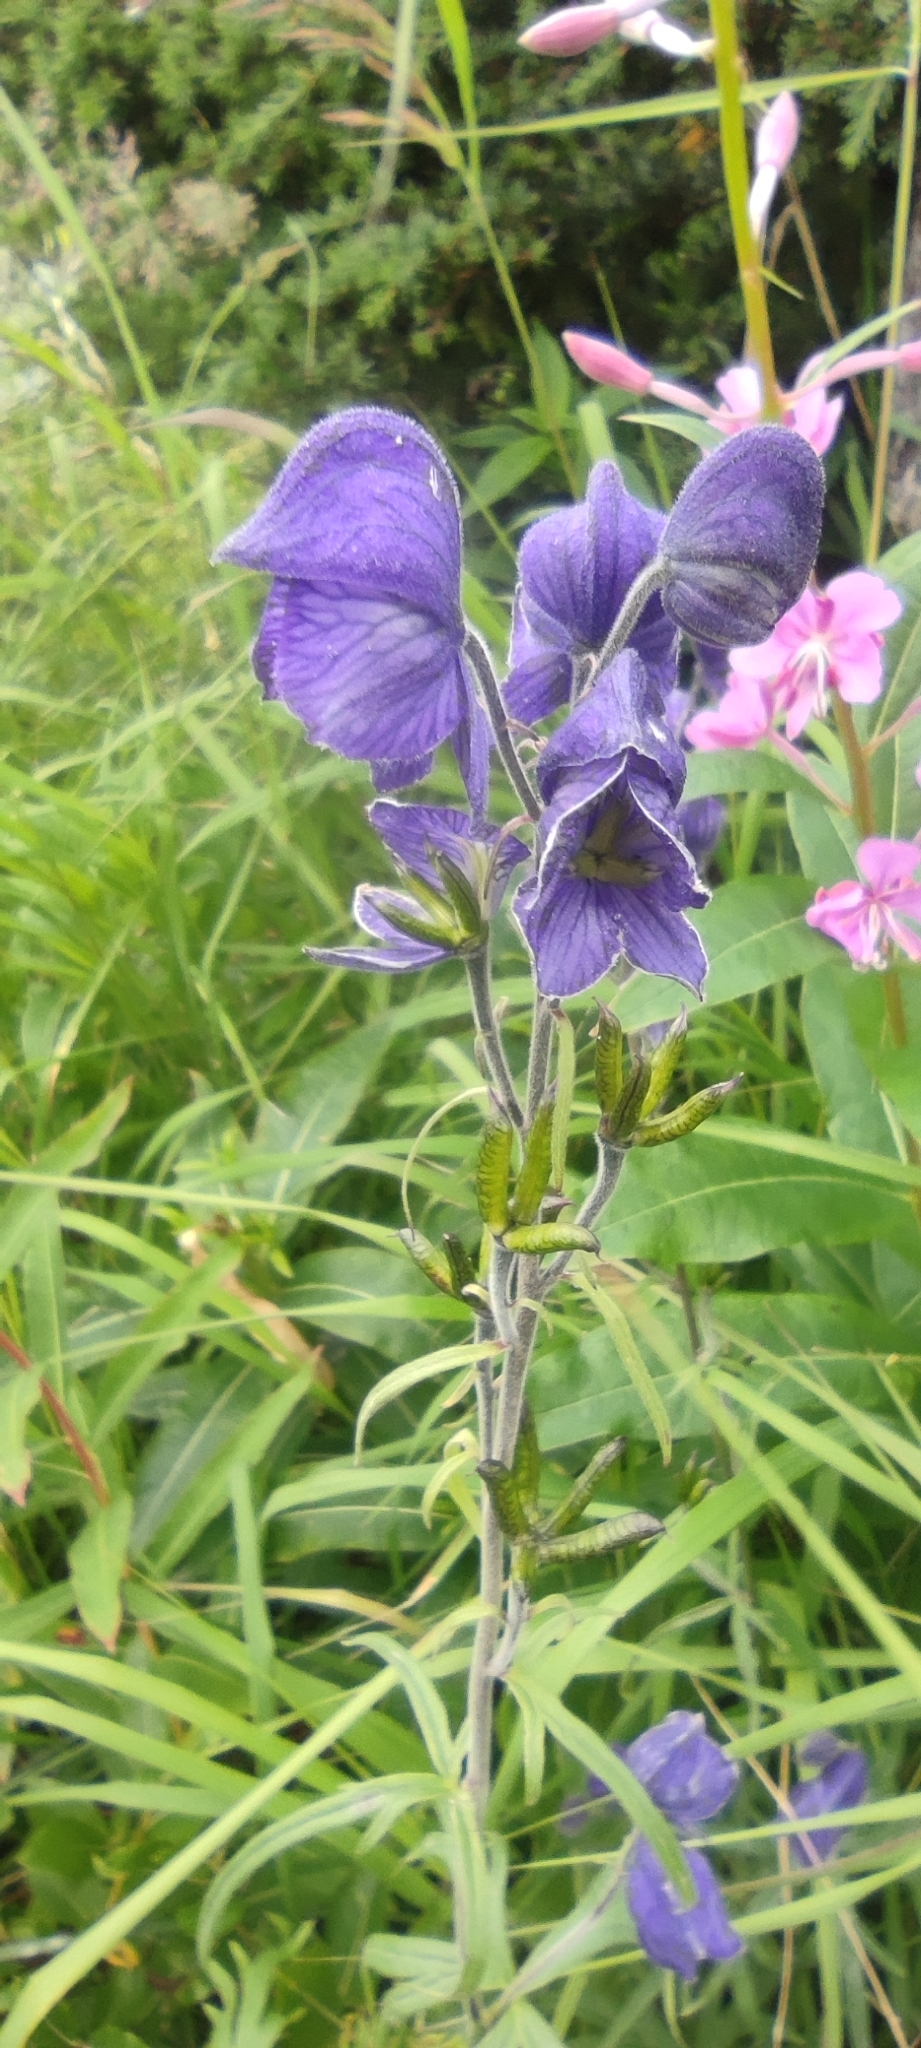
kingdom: Plantae
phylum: Tracheophyta
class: Magnoliopsida
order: Ranunculales
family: Ranunculaceae
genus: Aconitum
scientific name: Aconitum delphiniifolium
